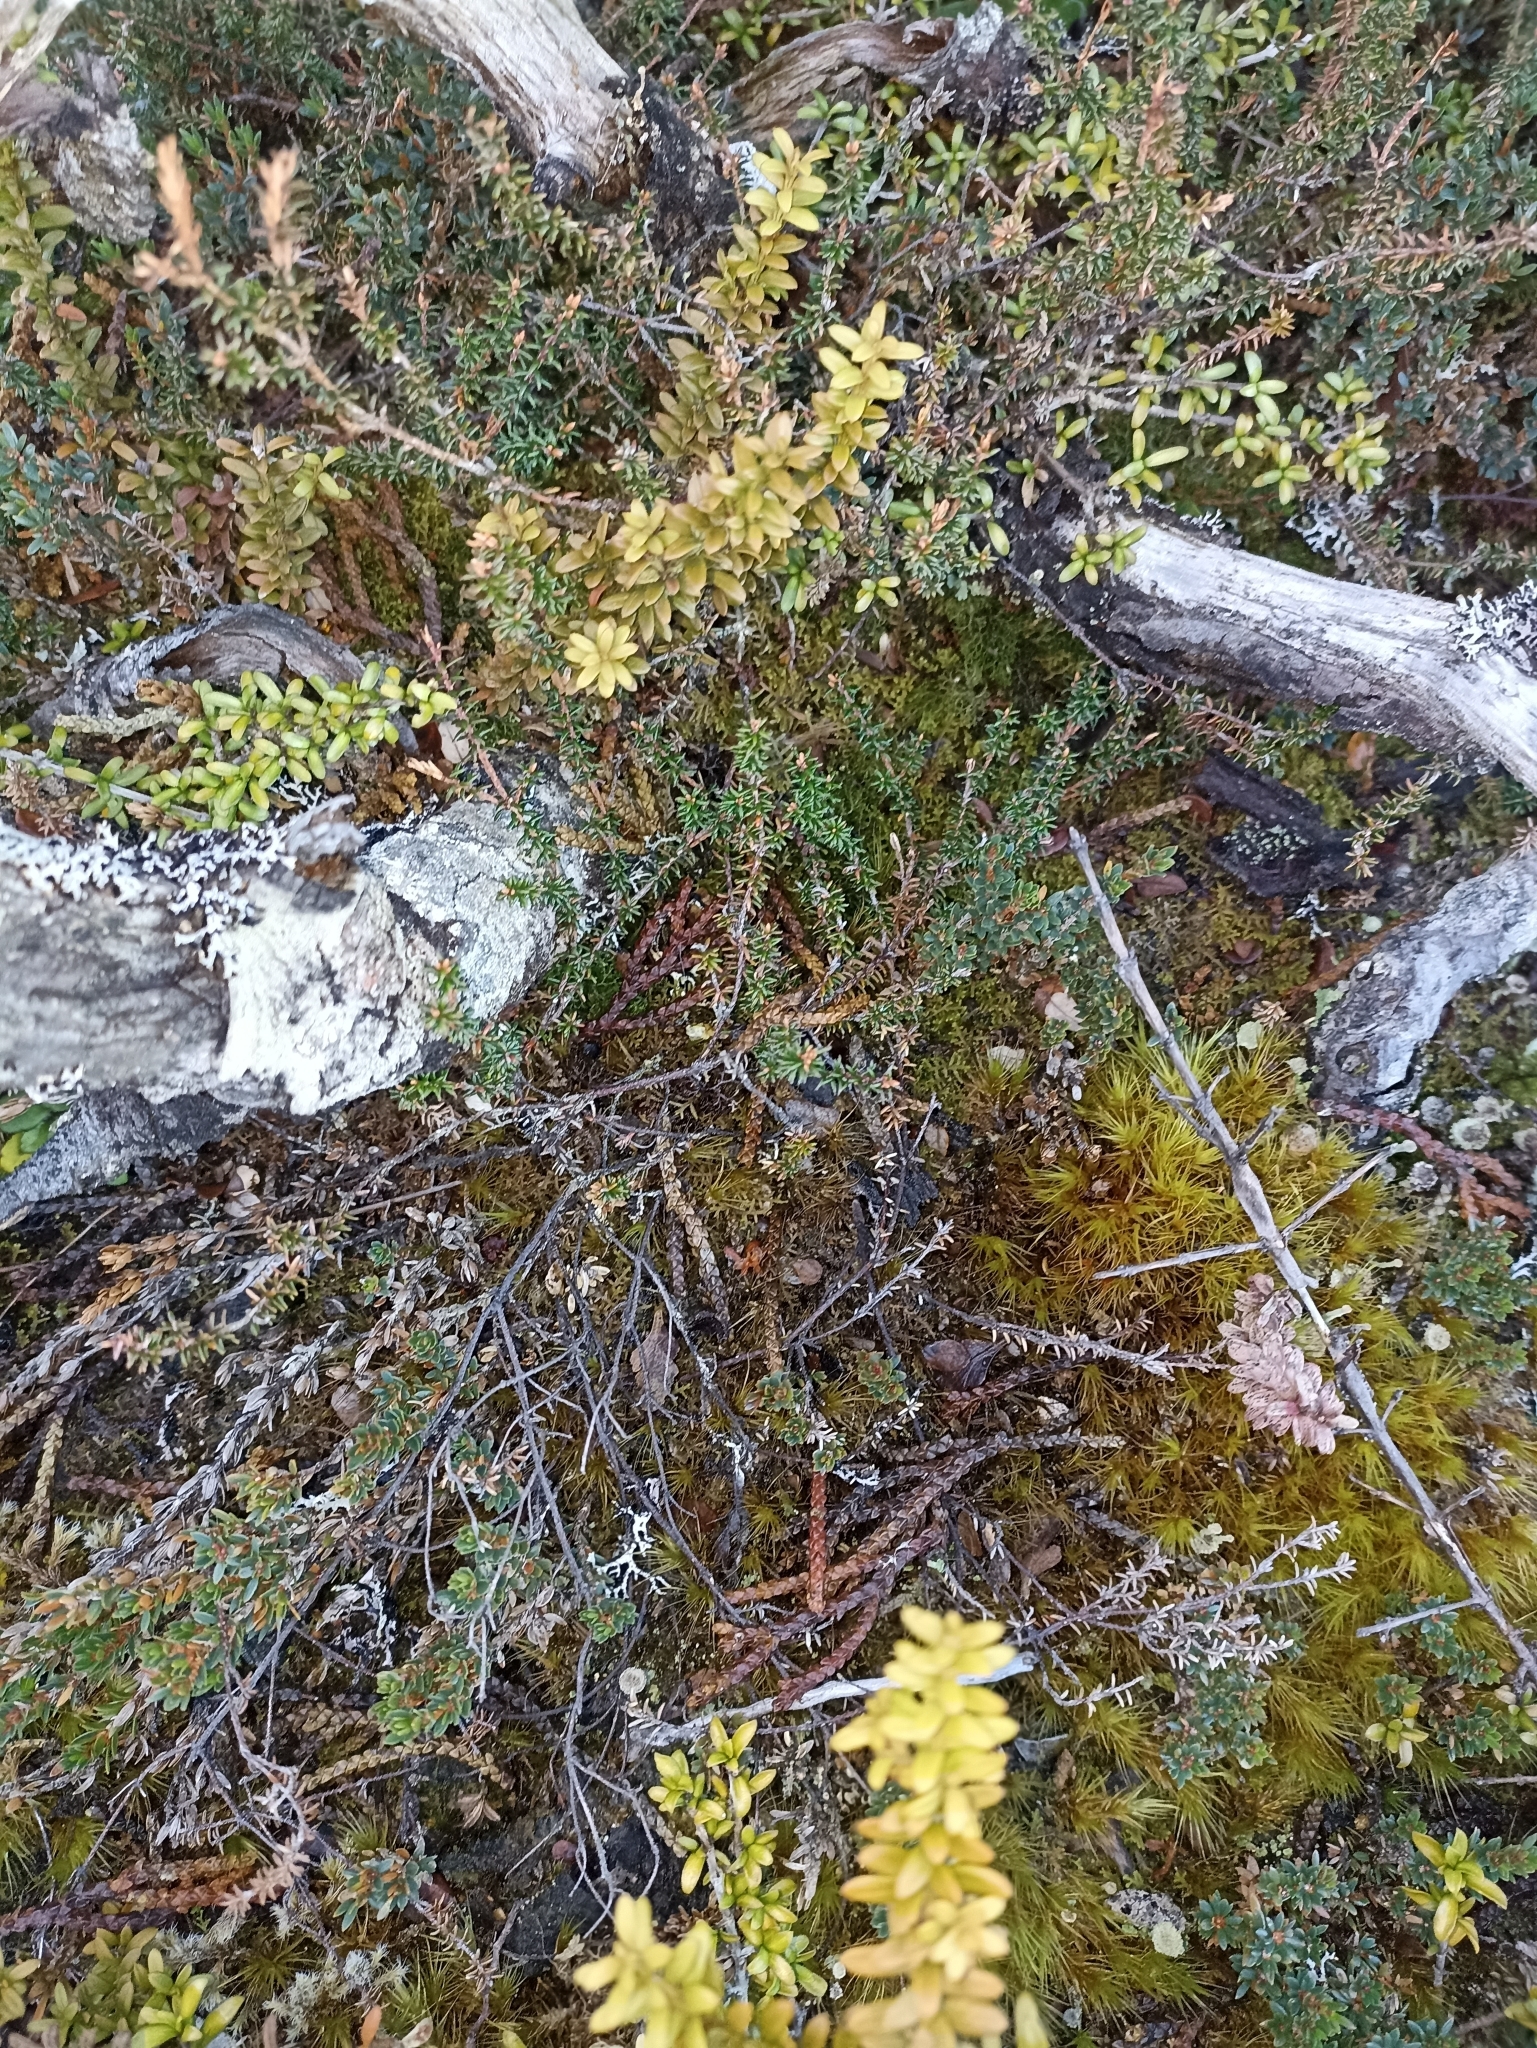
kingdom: Plantae
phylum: Tracheophyta
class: Magnoliopsida
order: Ericales
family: Ericaceae
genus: Androstoma
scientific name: Androstoma empetrifolia
